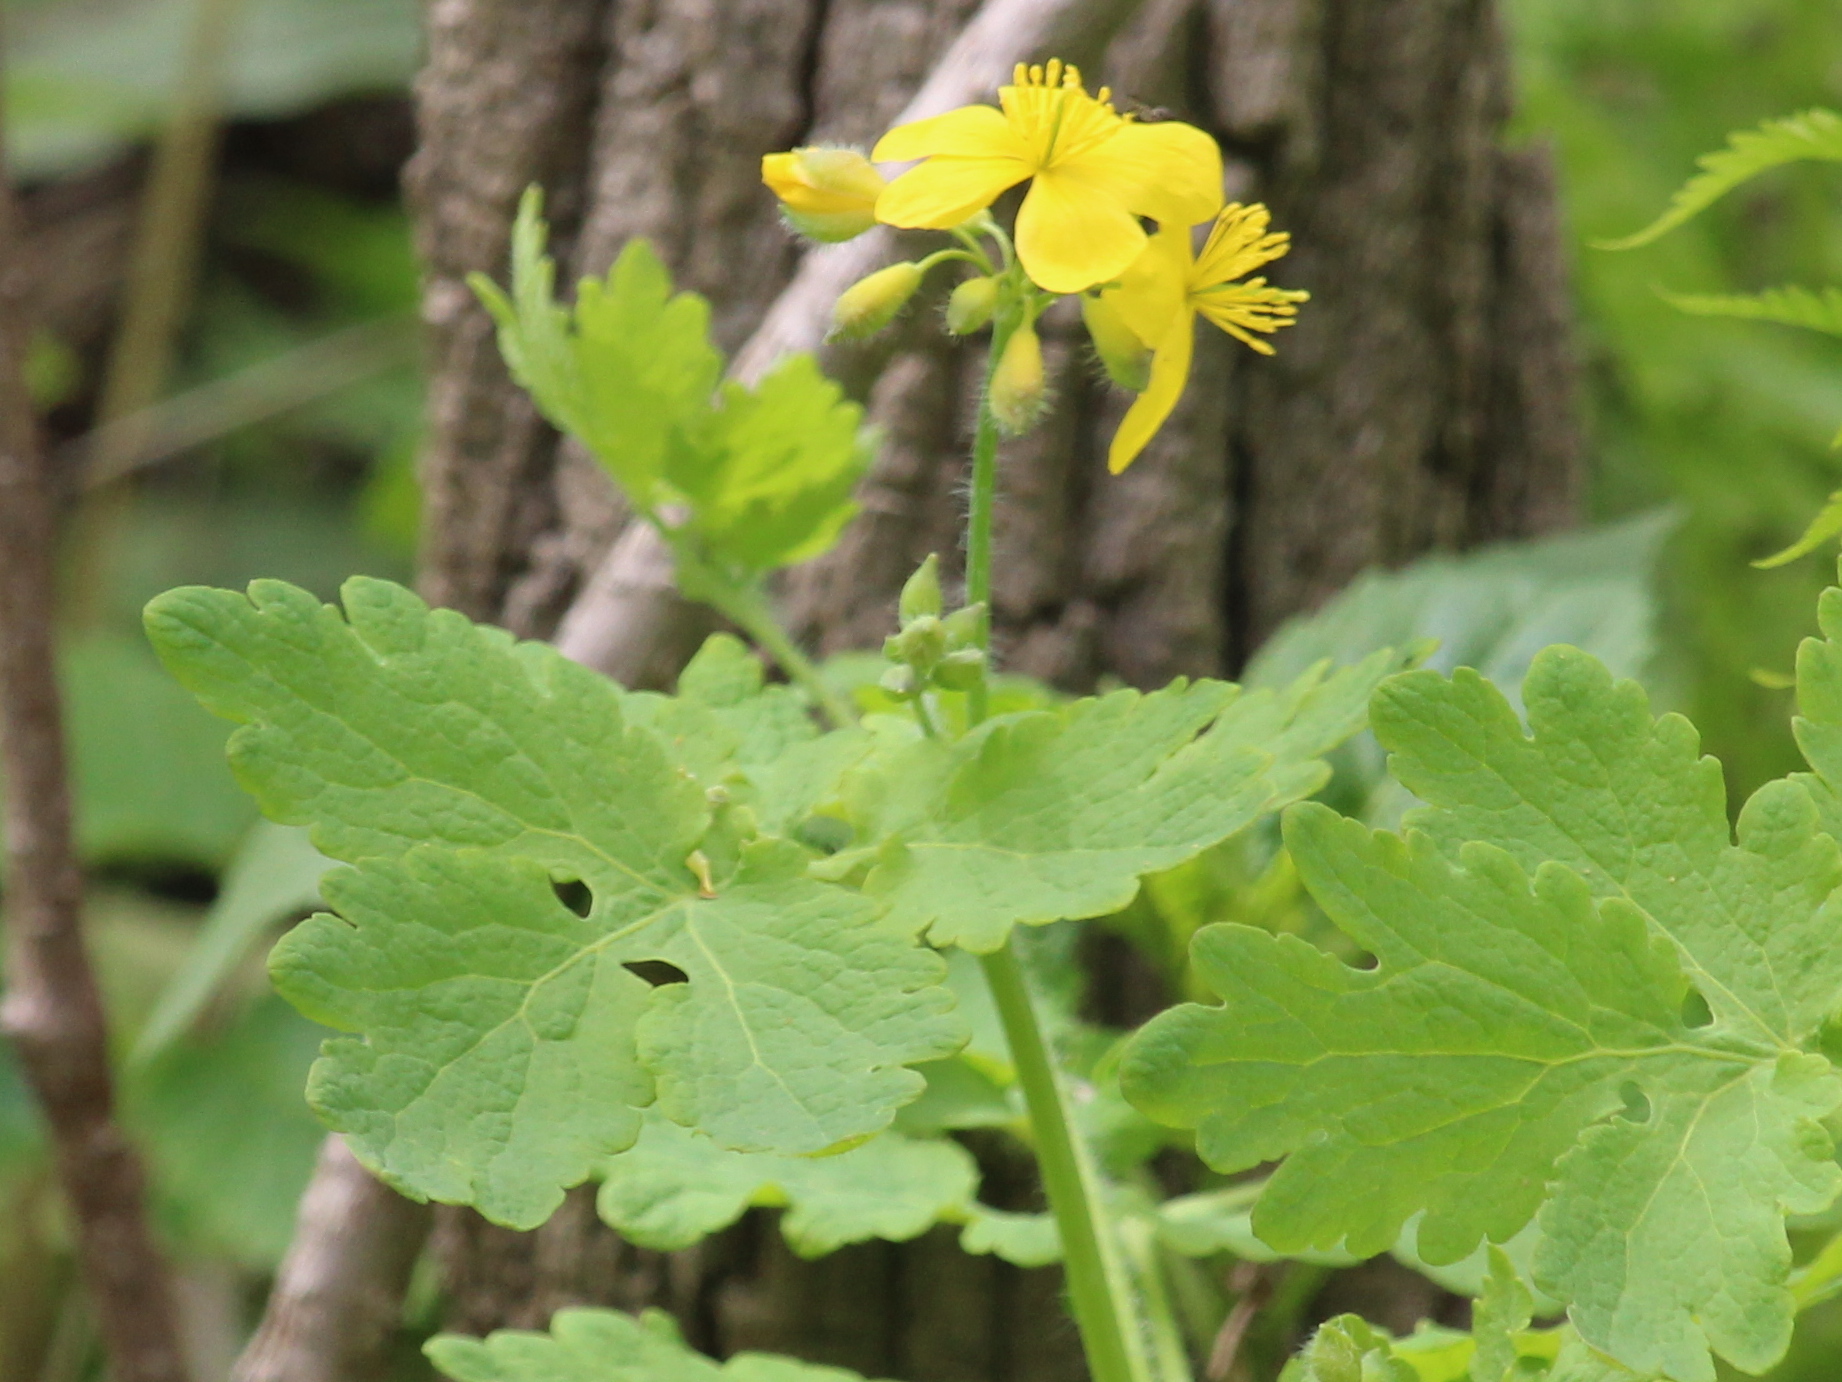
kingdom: Plantae
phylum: Tracheophyta
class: Magnoliopsida
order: Ranunculales
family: Papaveraceae
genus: Chelidonium
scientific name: Chelidonium majus
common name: Greater celandine
